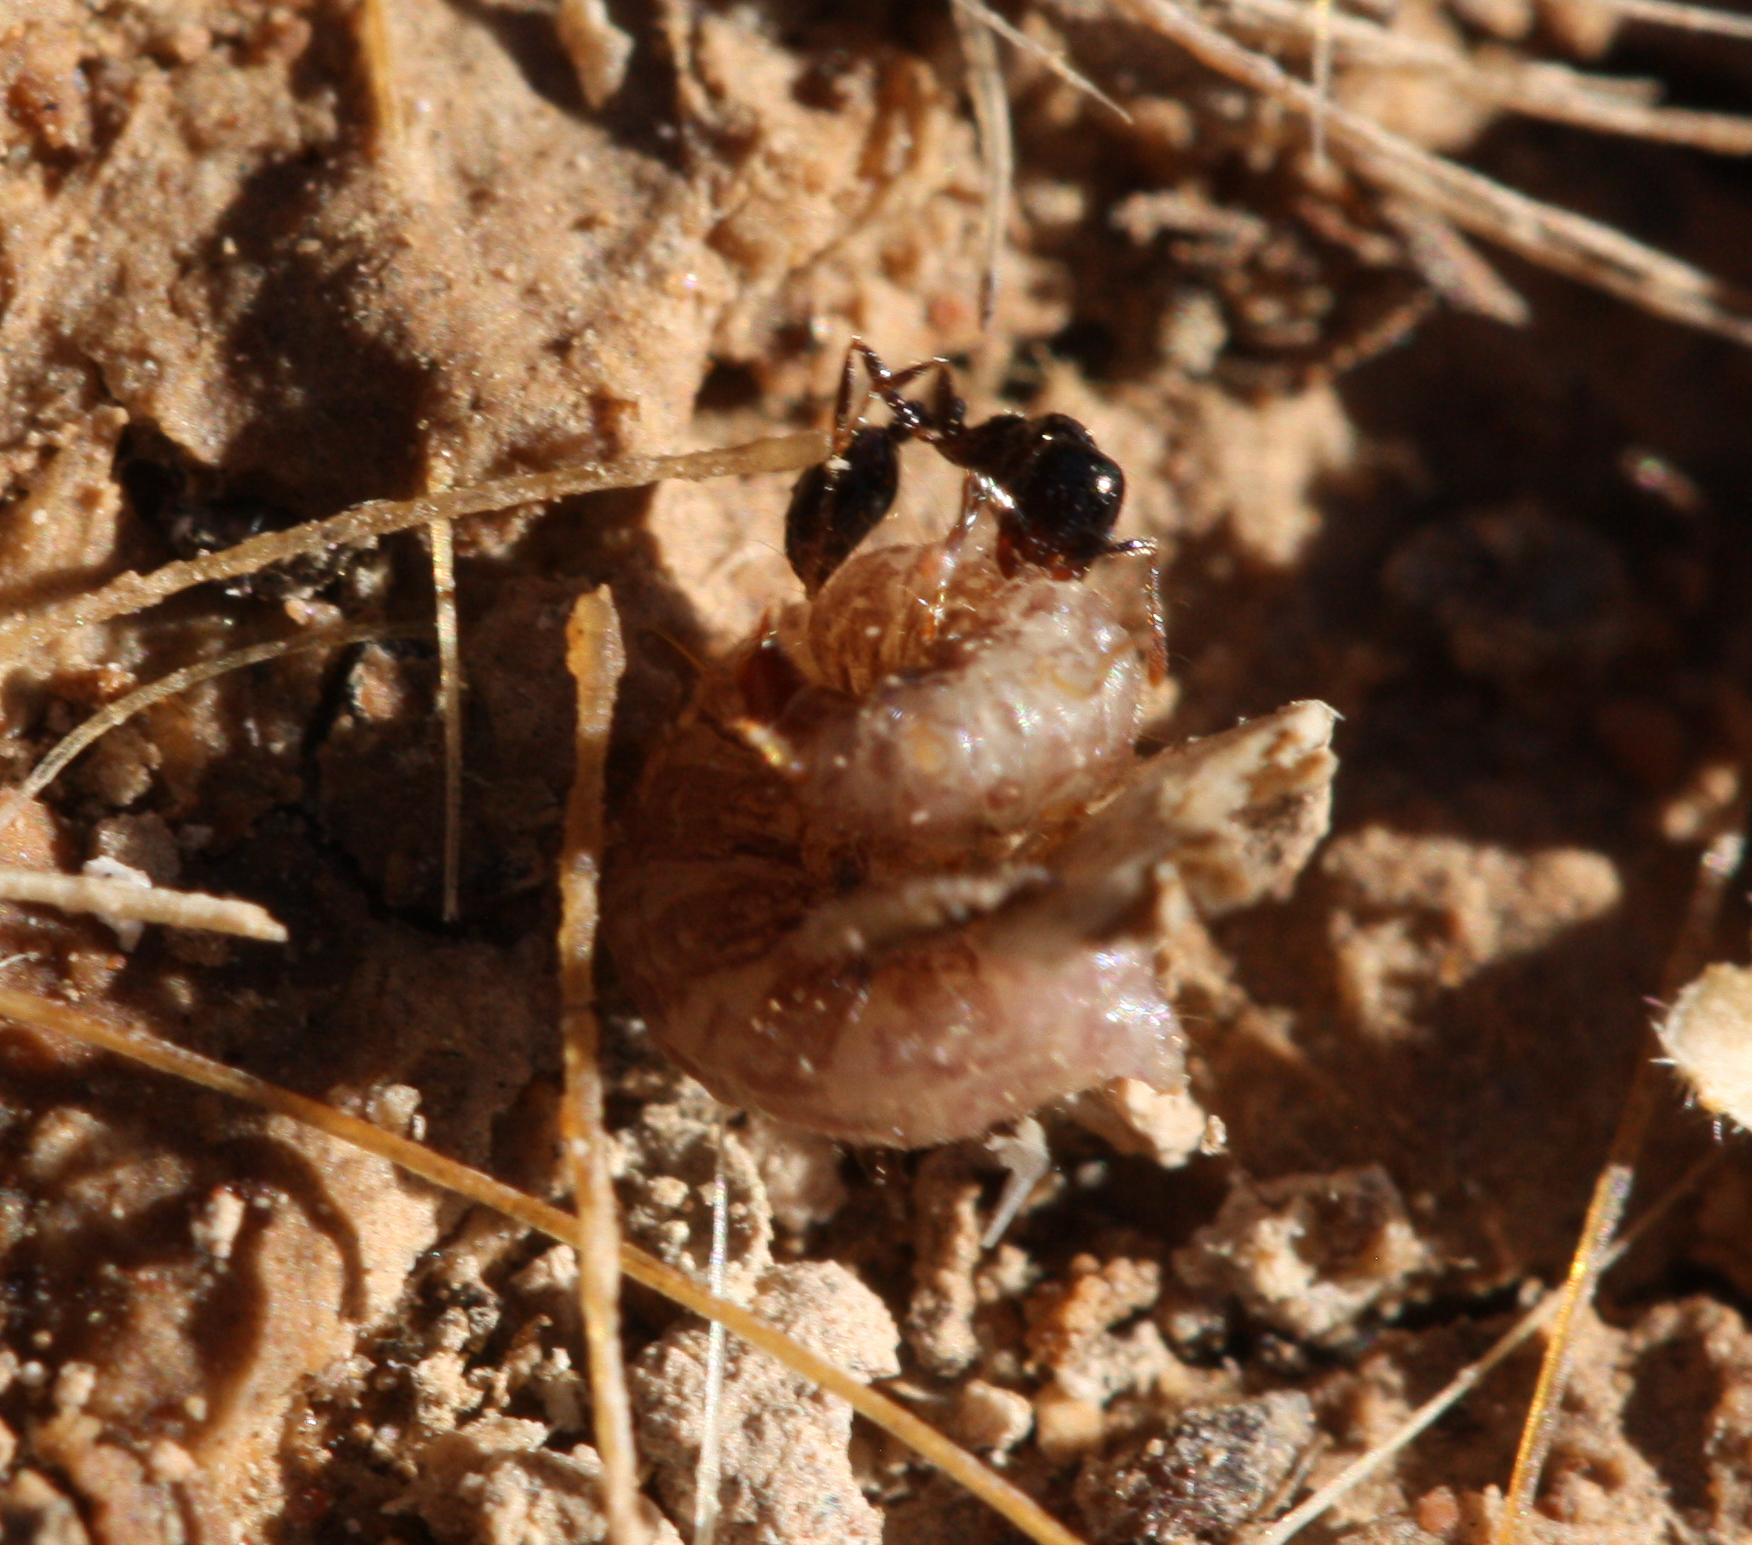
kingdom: Animalia
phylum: Arthropoda
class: Insecta
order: Hymenoptera
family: Formicidae
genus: Solenopsis
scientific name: Solenopsis xyloni
